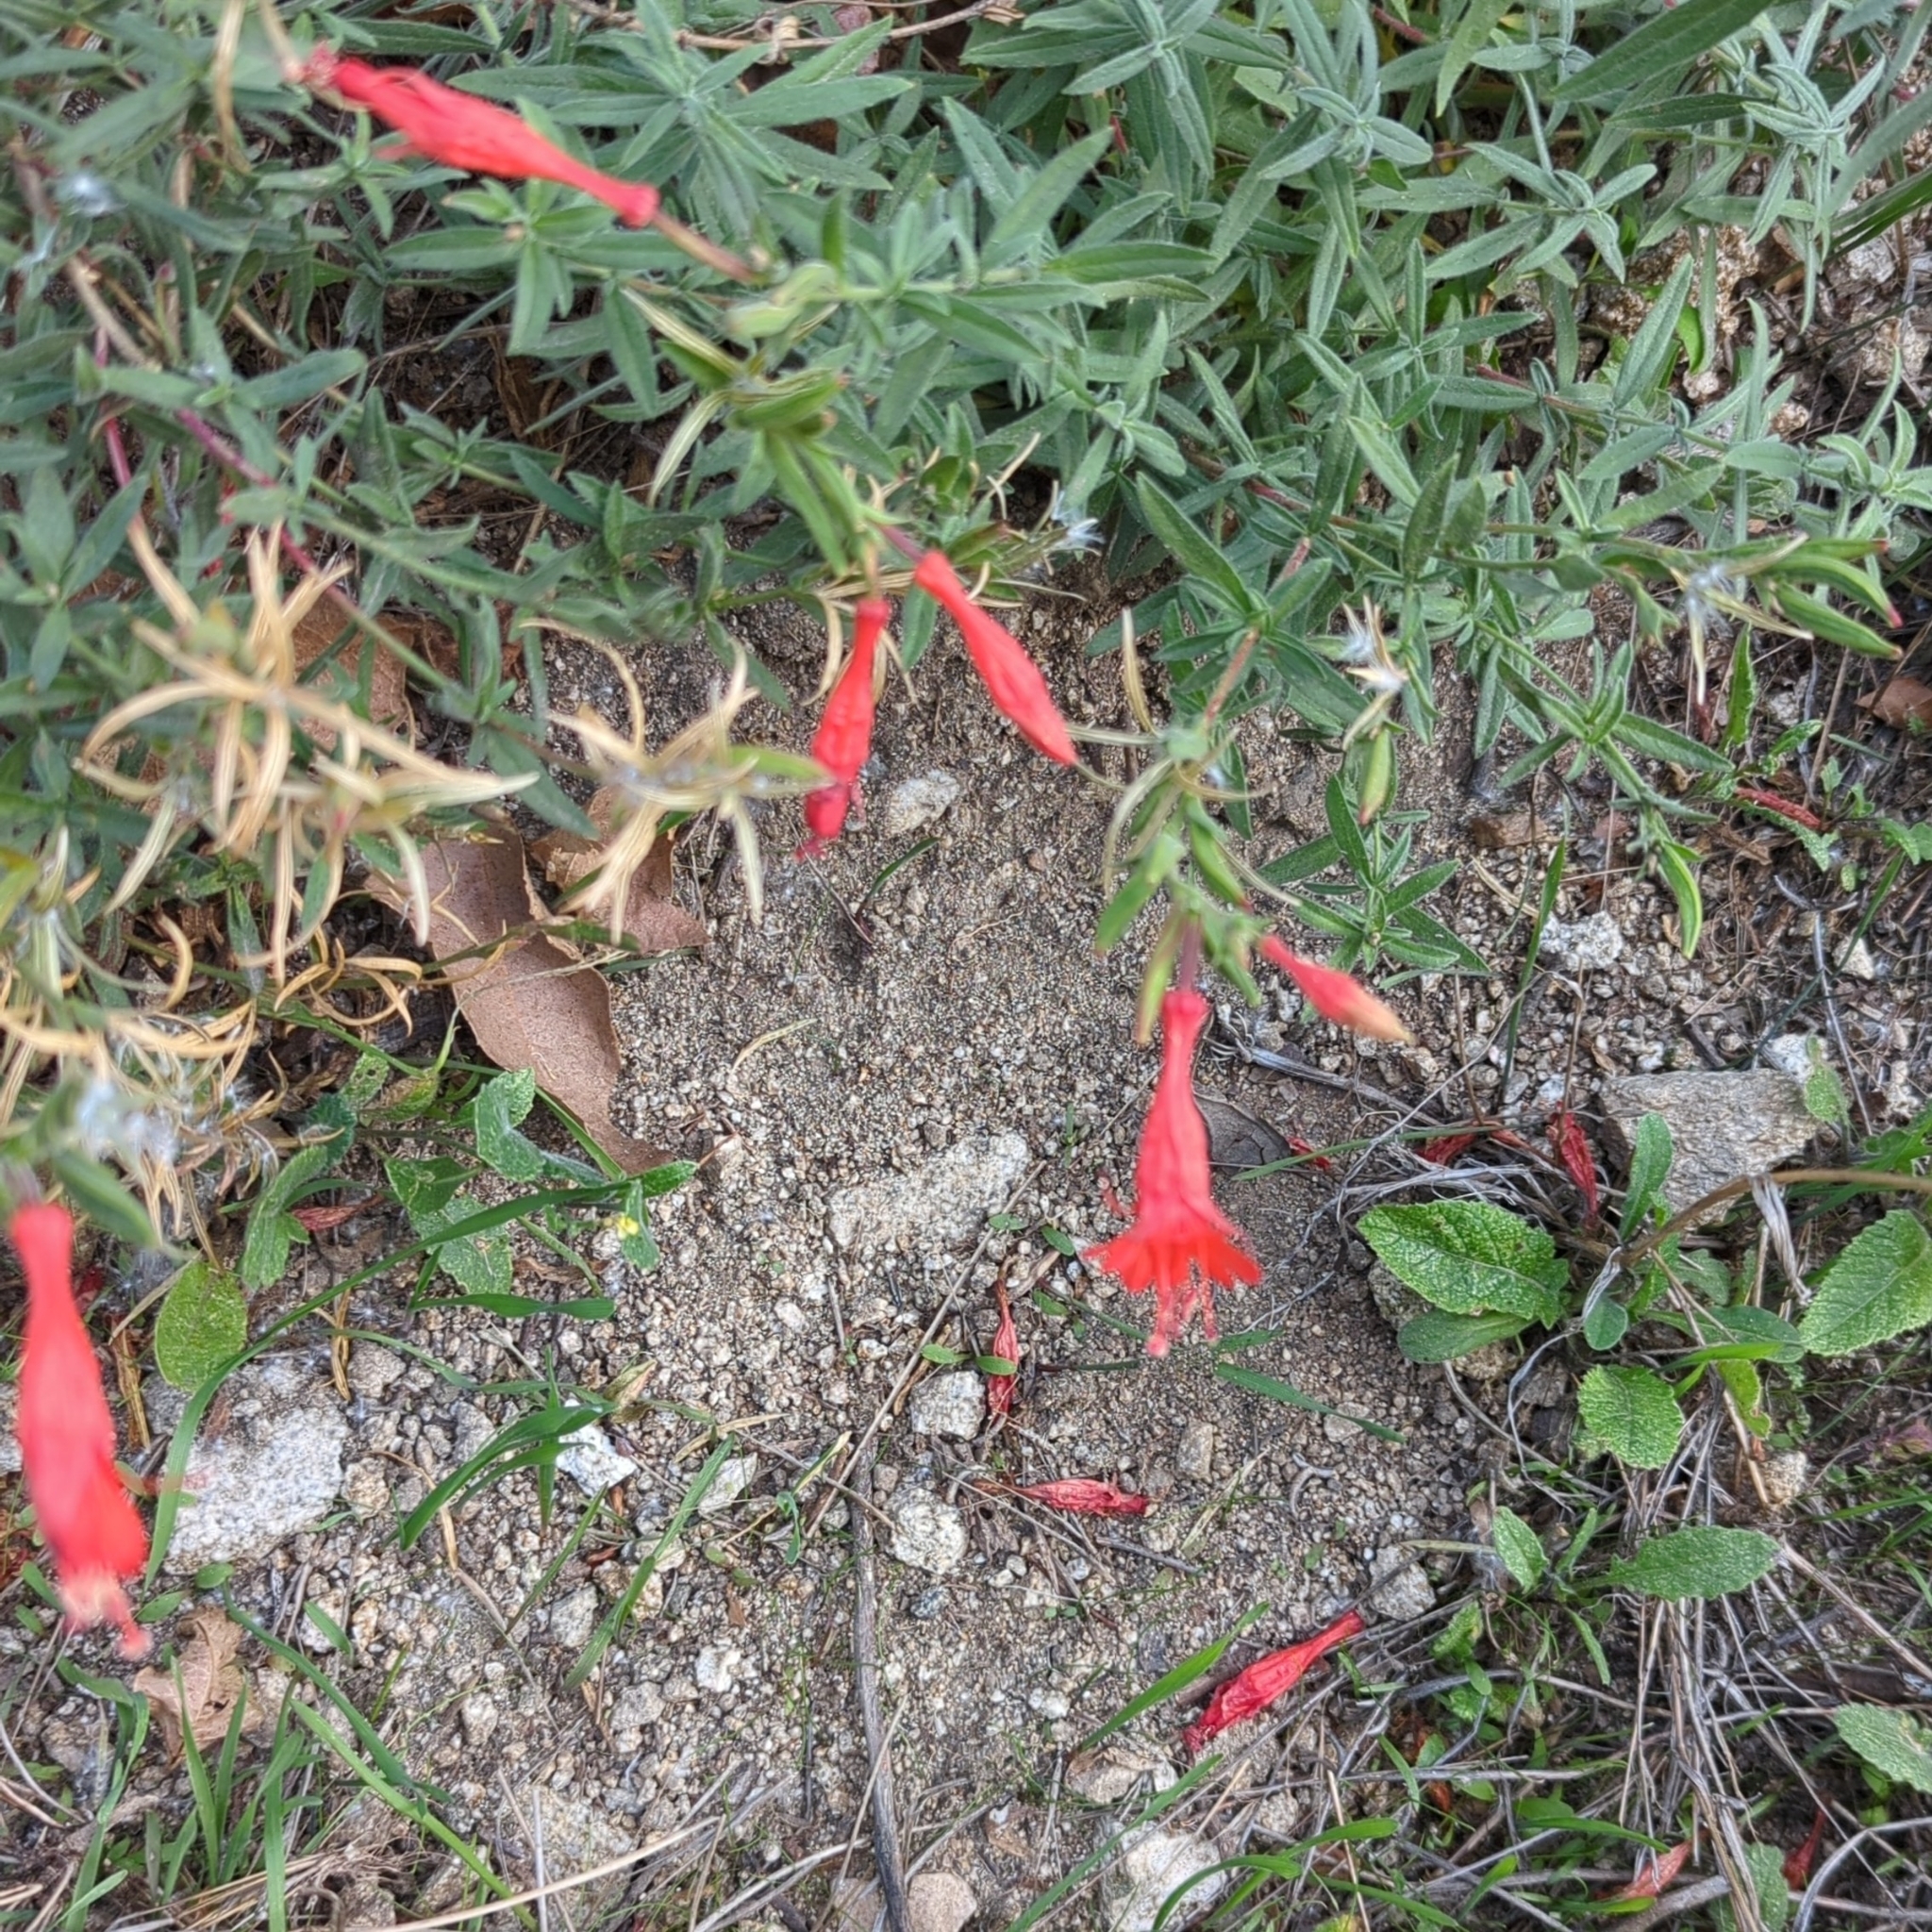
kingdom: Plantae
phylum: Tracheophyta
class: Magnoliopsida
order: Myrtales
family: Onagraceae
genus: Epilobium
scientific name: Epilobium canum
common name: California-fuchsia
